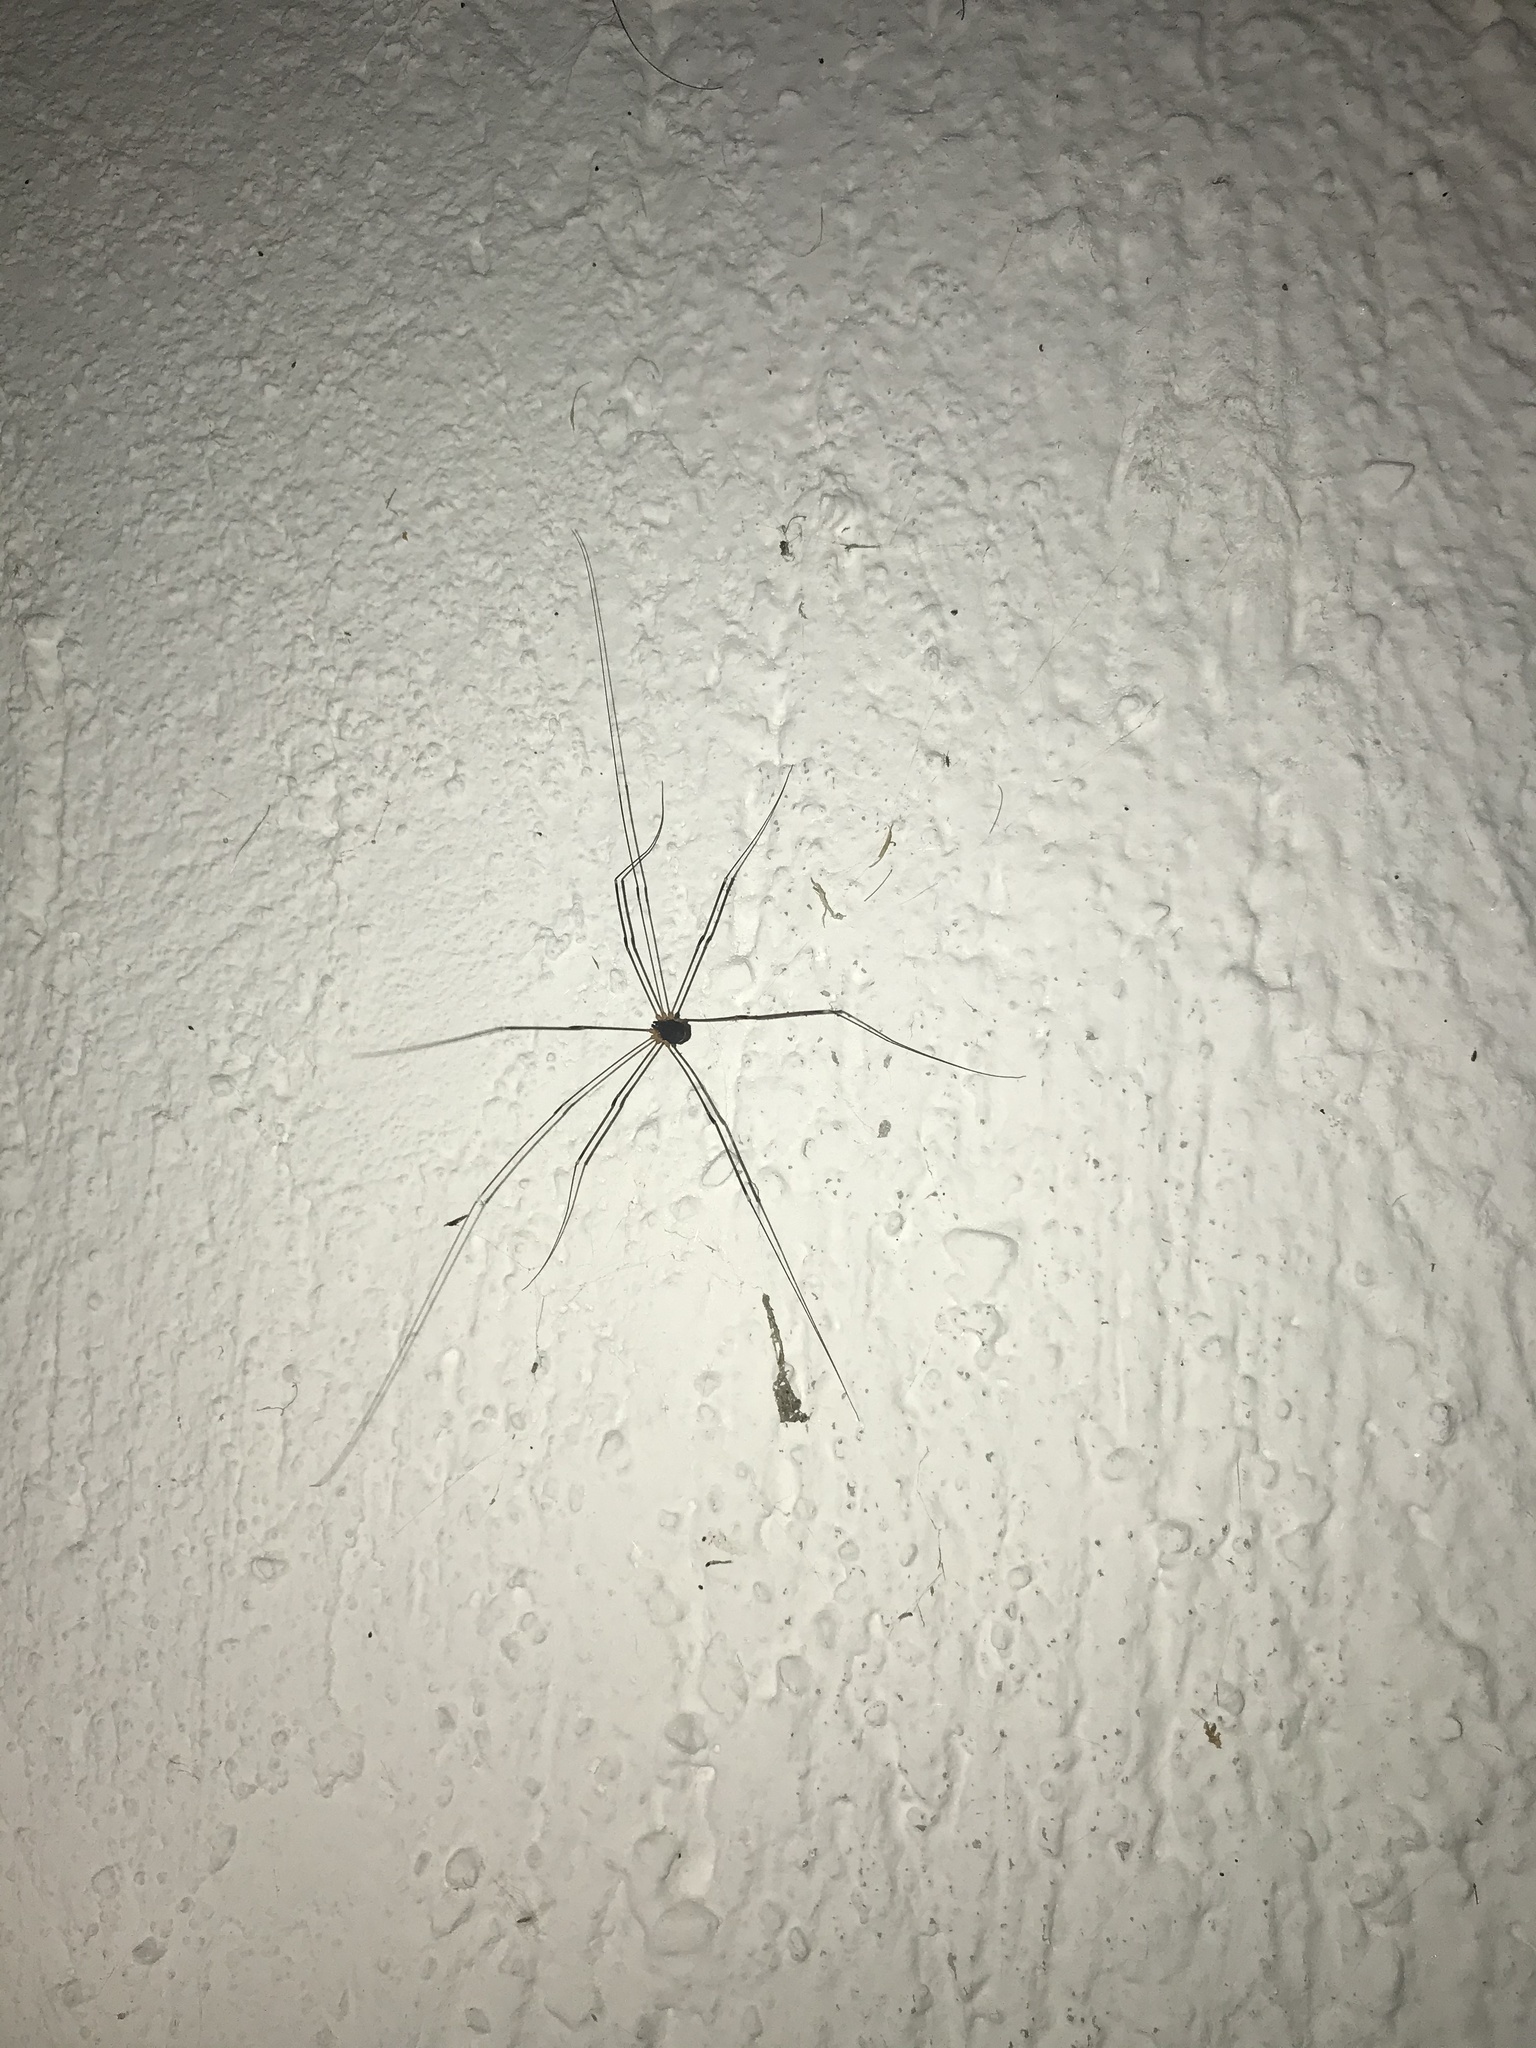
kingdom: Animalia
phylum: Arthropoda
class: Arachnida
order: Opiliones
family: Sclerosomatidae
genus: Leiobunum
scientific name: Leiobunum
